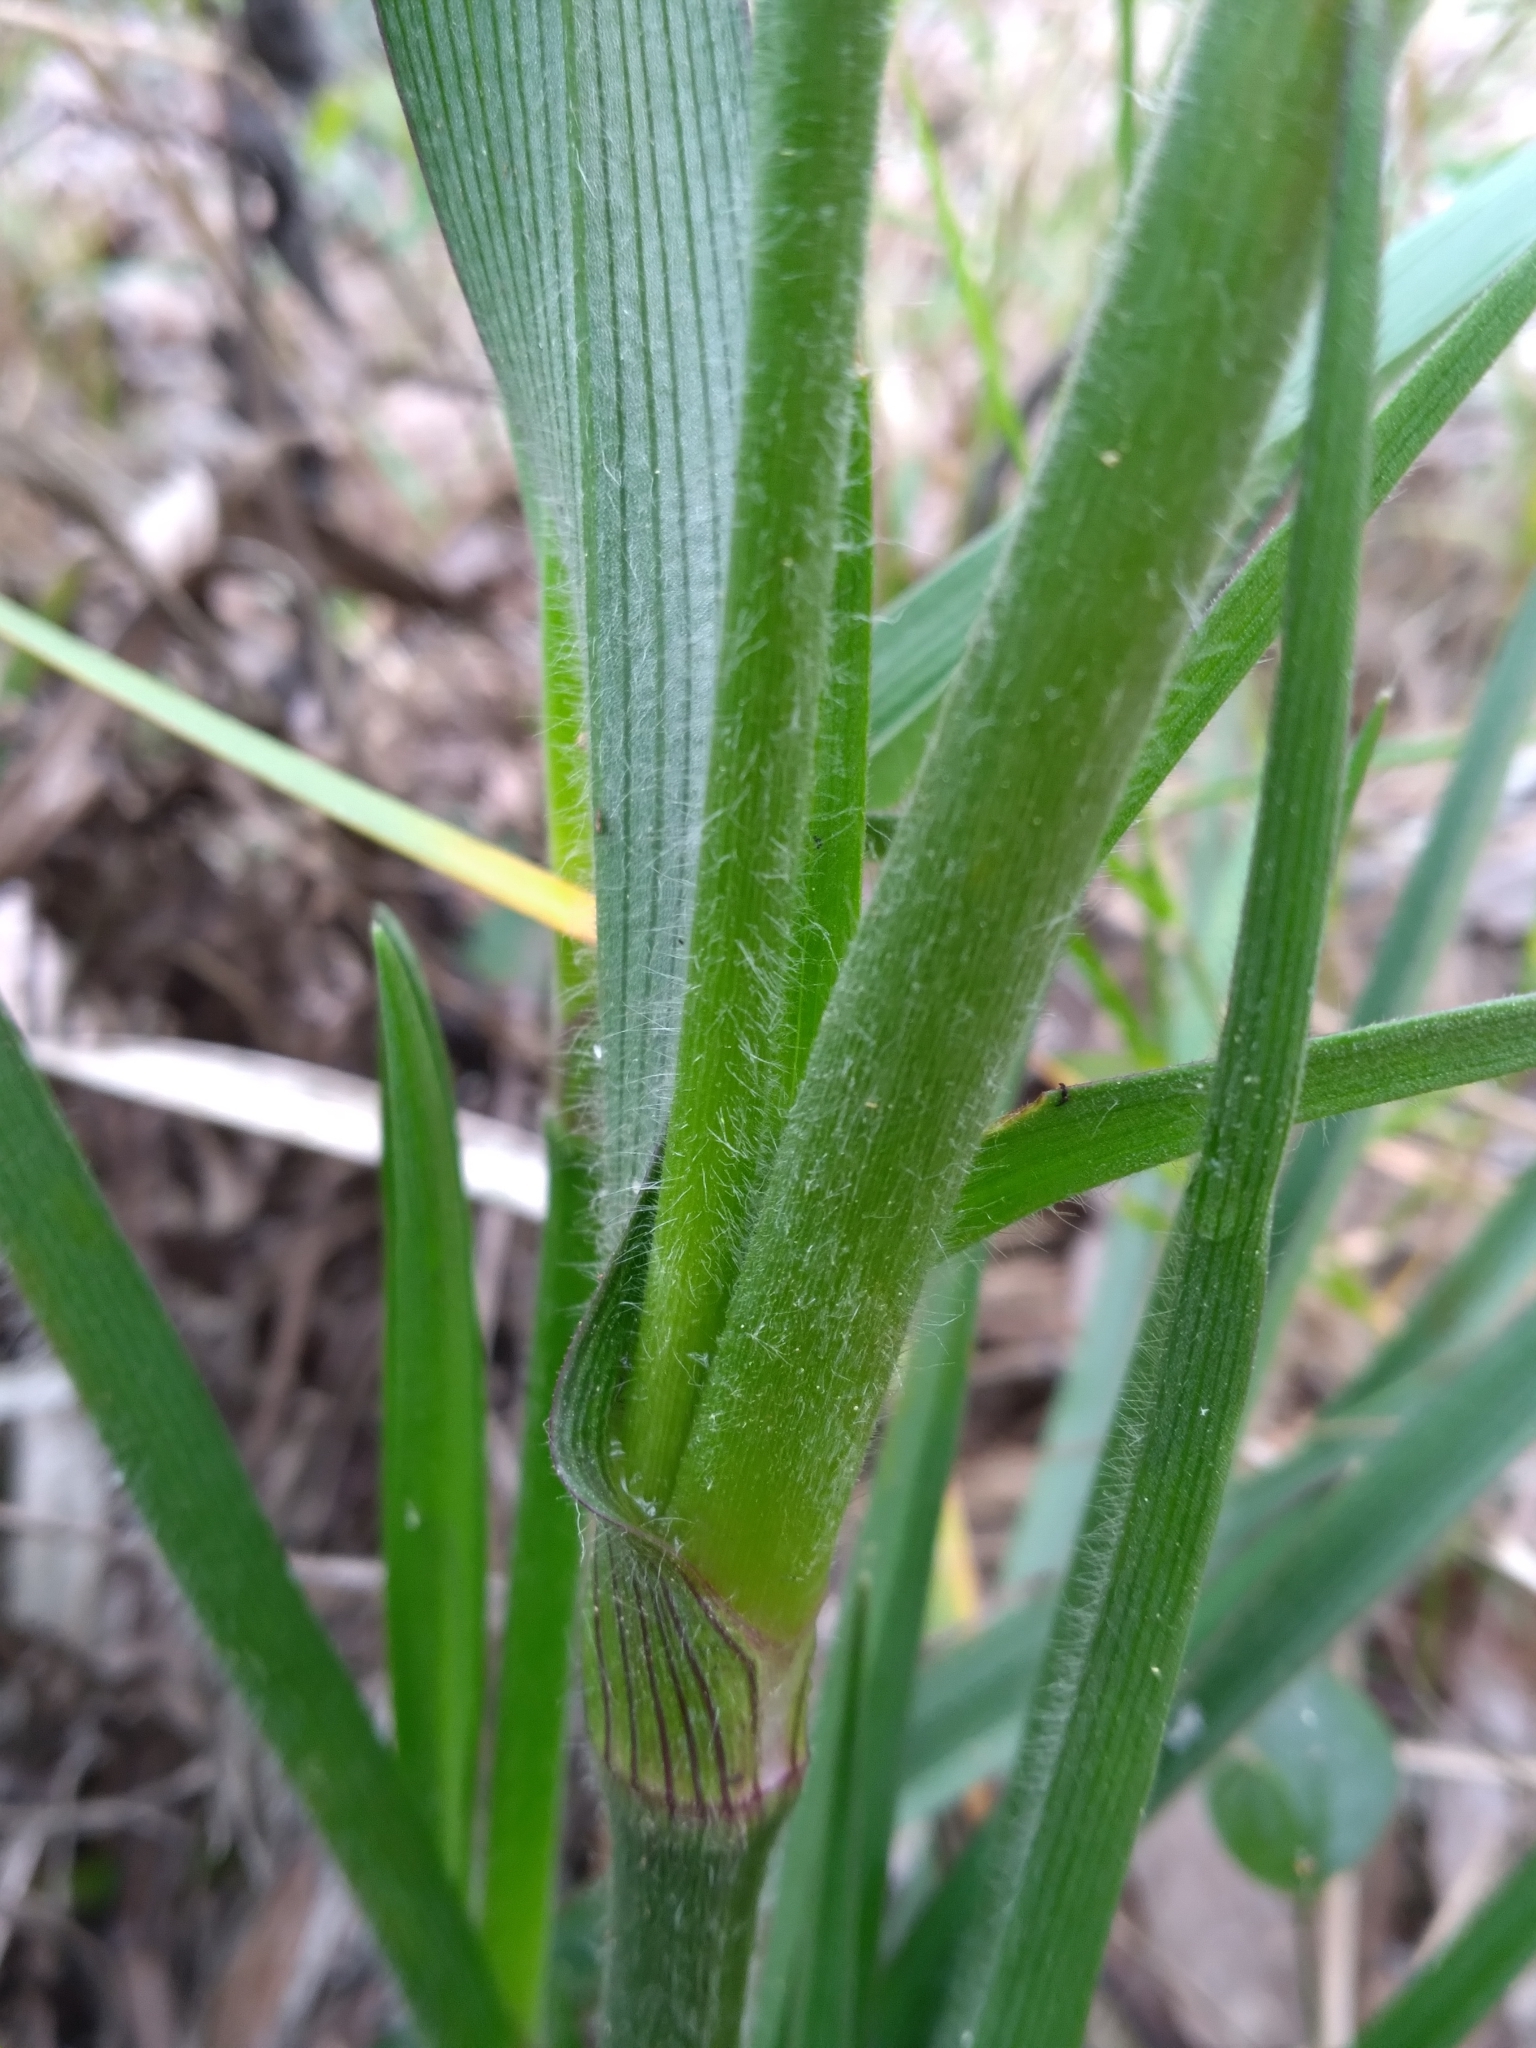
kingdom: Plantae
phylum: Tracheophyta
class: Liliopsida
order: Commelinales
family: Commelinaceae
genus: Tradescantia
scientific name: Tradescantia roseolens
